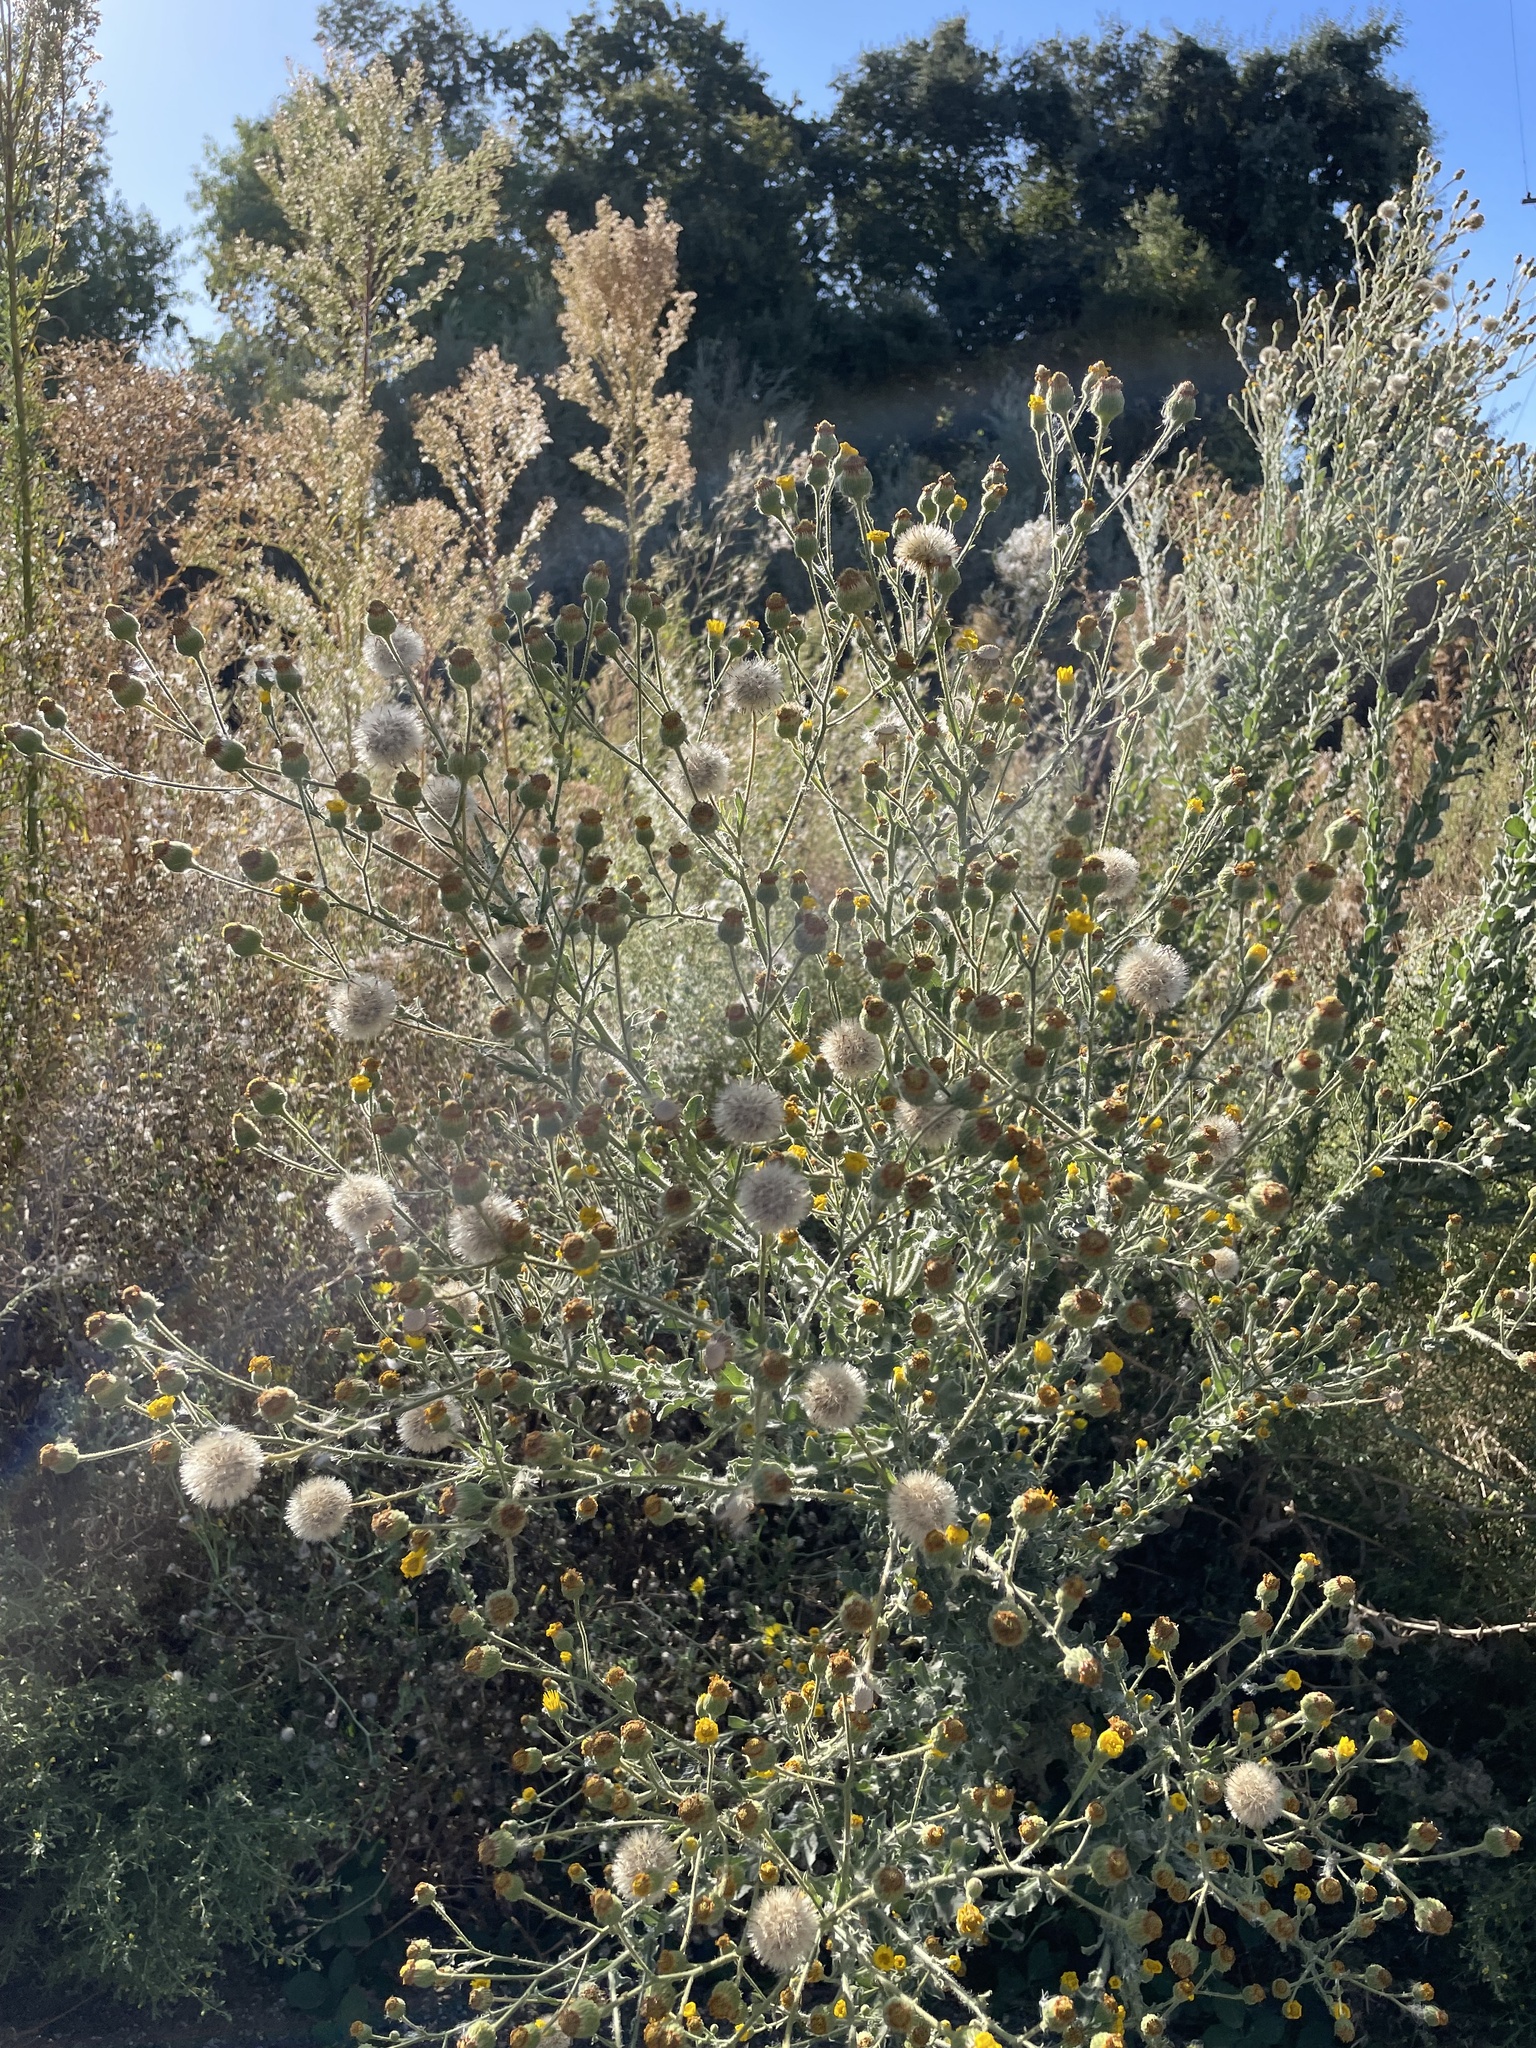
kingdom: Plantae
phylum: Tracheophyta
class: Magnoliopsida
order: Asterales
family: Asteraceae
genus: Heterotheca
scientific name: Heterotheca grandiflora
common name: Telegraphweed
